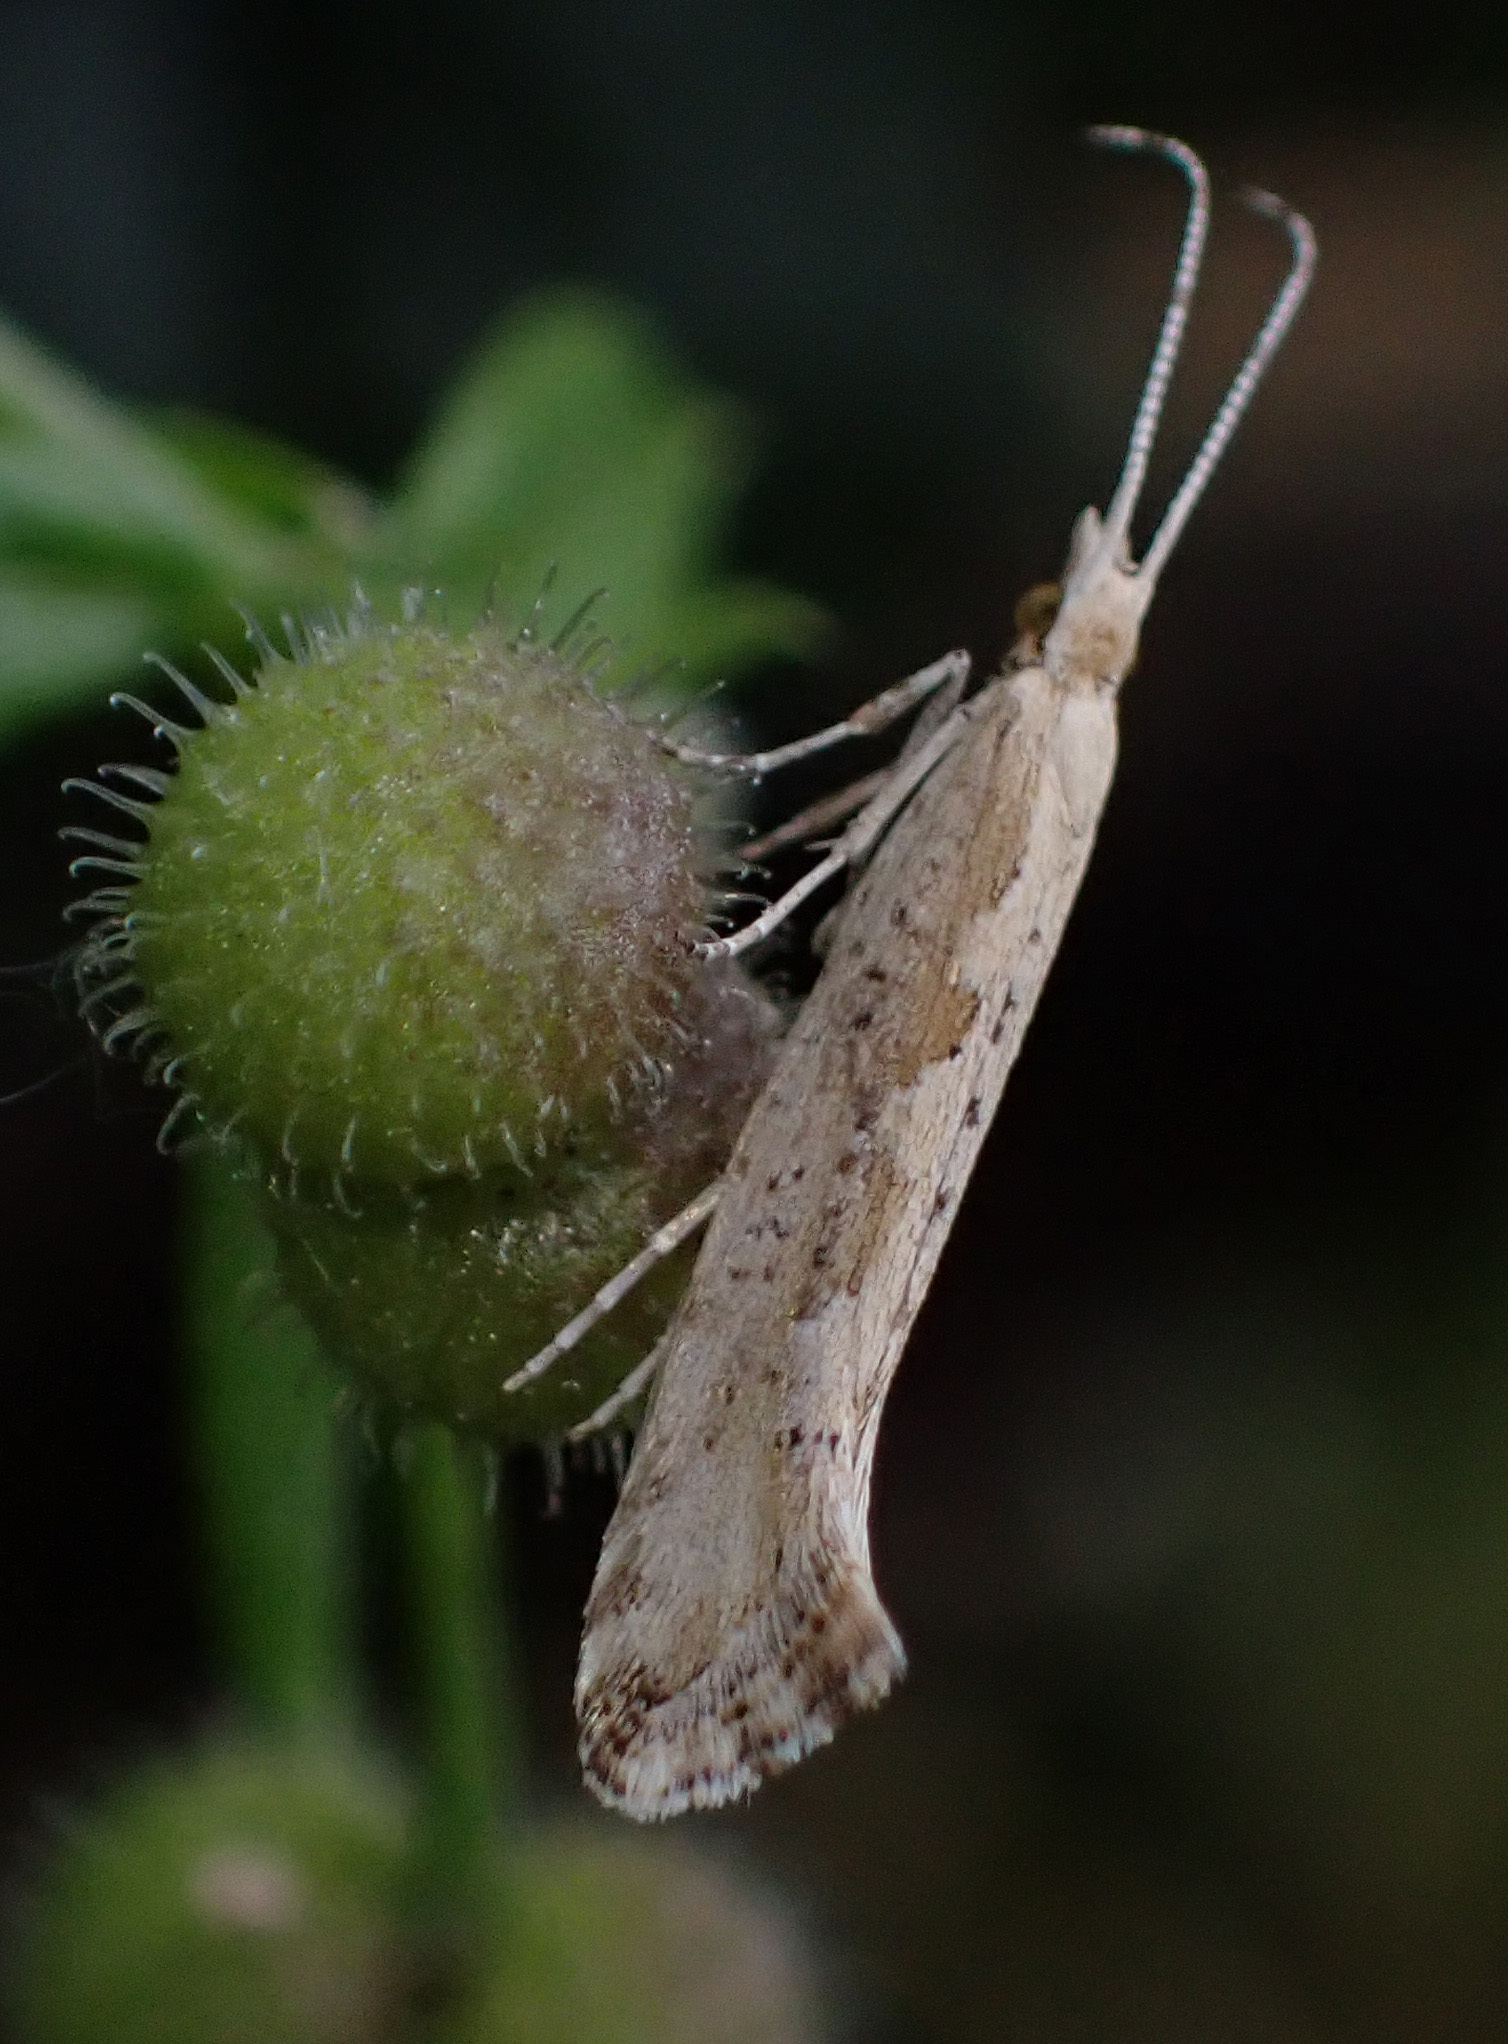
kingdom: Animalia
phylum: Arthropoda
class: Insecta
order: Lepidoptera
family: Plutellidae
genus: Plutella
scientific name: Plutella xylostella
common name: Diamond-back moth
